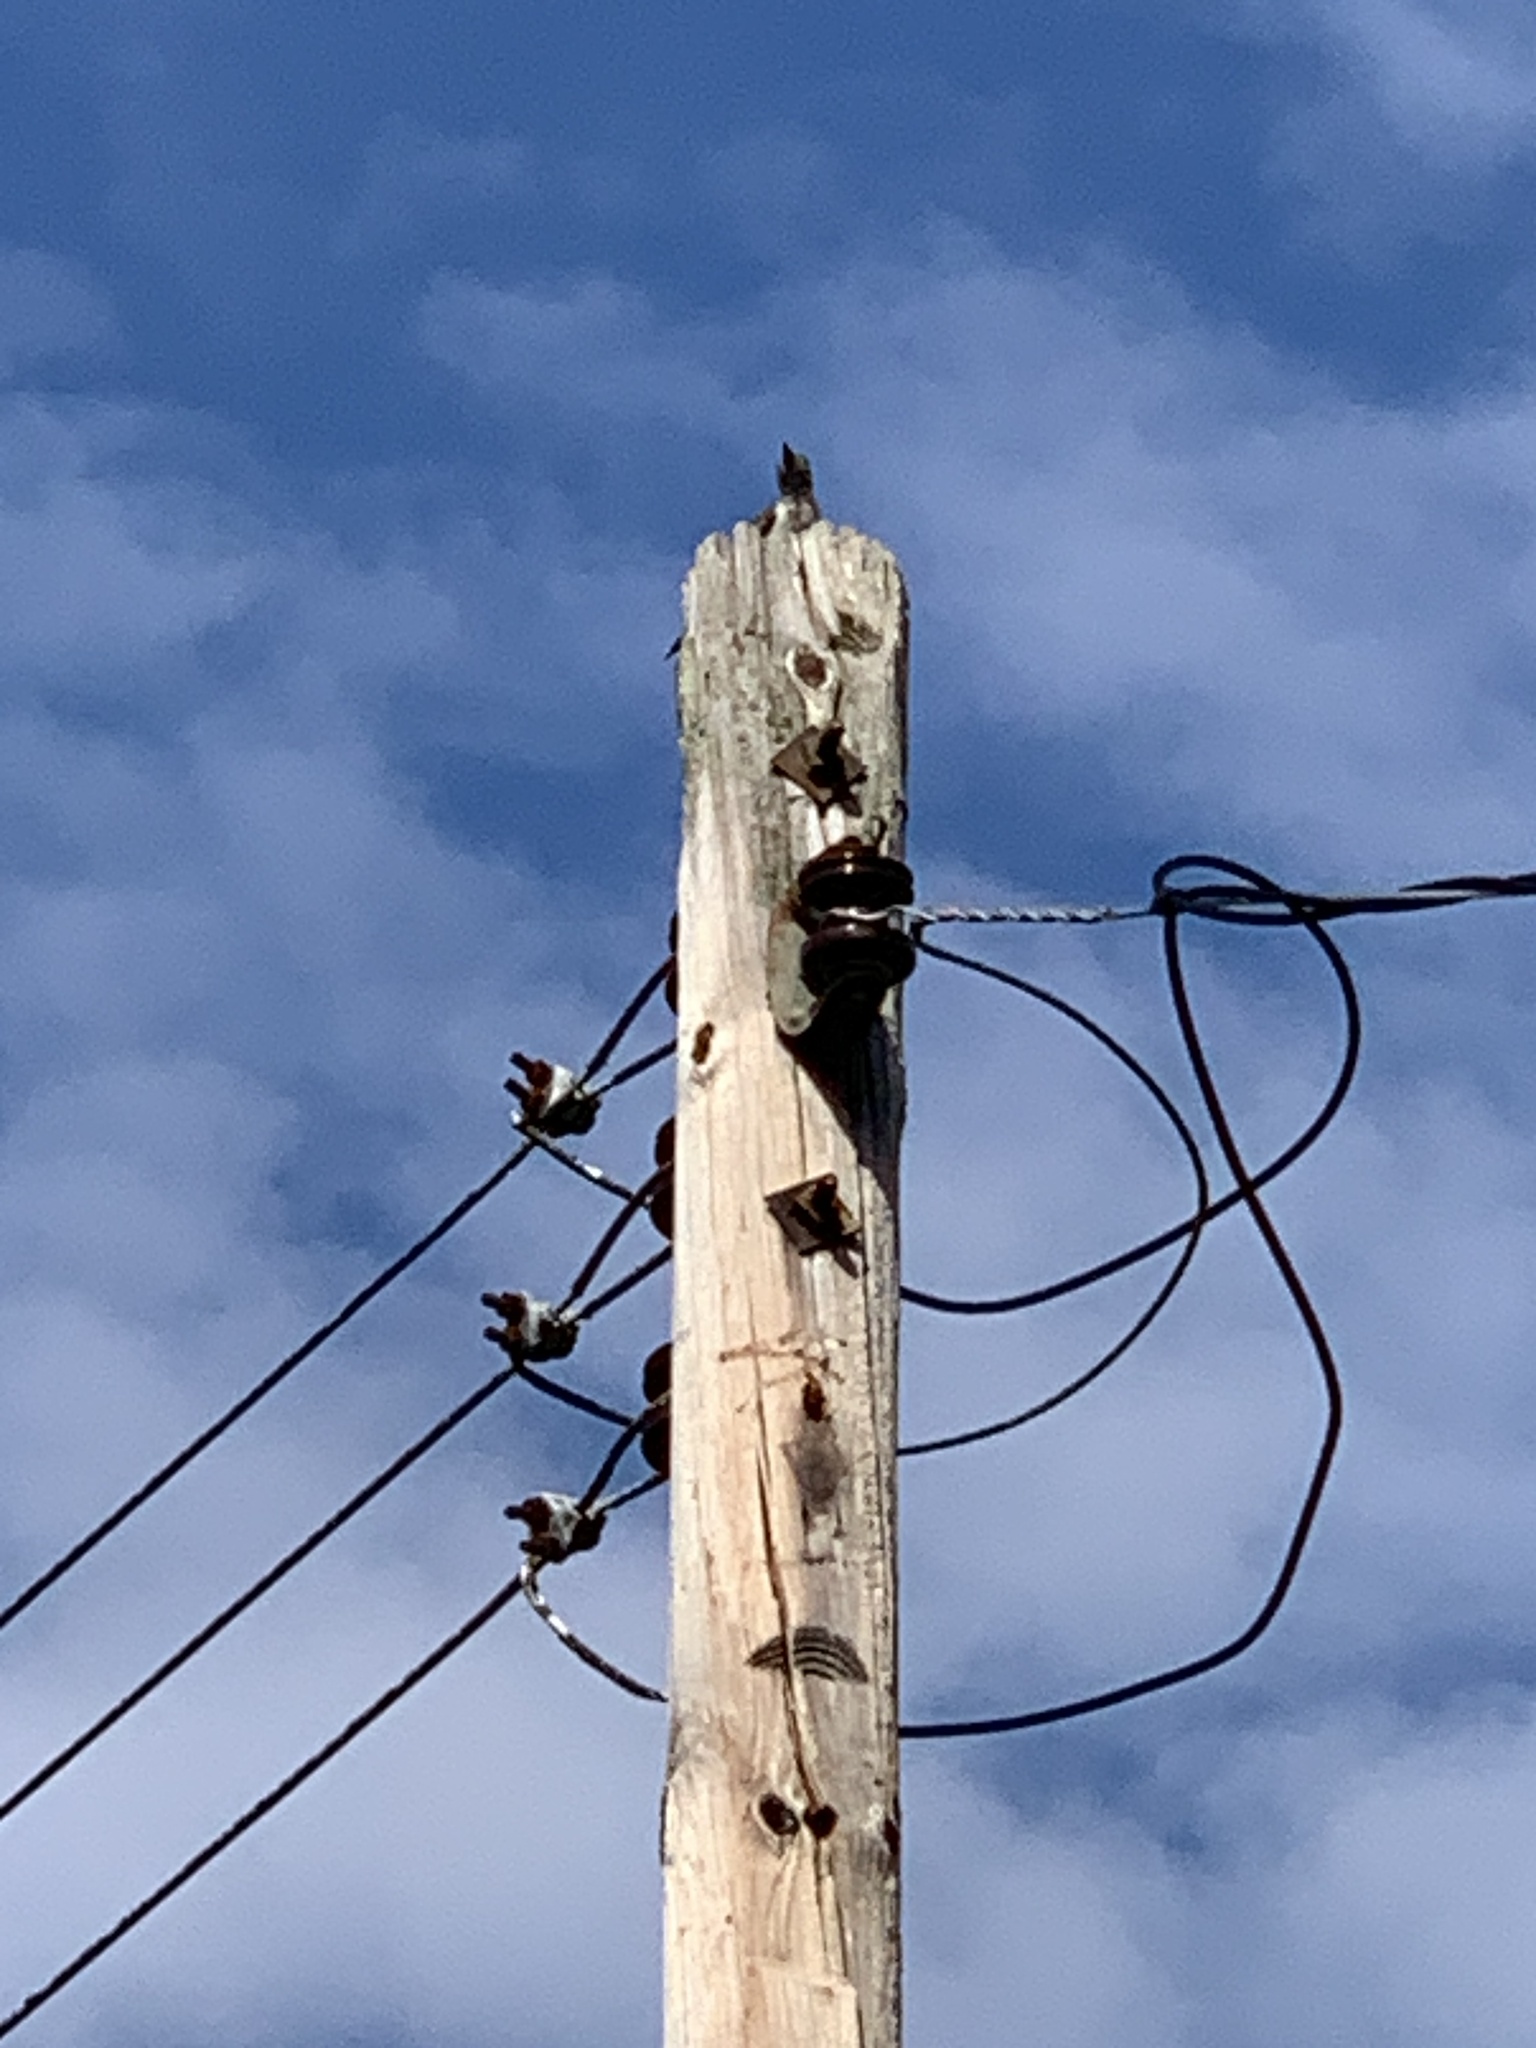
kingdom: Animalia
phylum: Chordata
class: Aves
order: Piciformes
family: Picidae
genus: Melanerpes
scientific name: Melanerpes erythrocephalus
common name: Red-headed woodpecker
